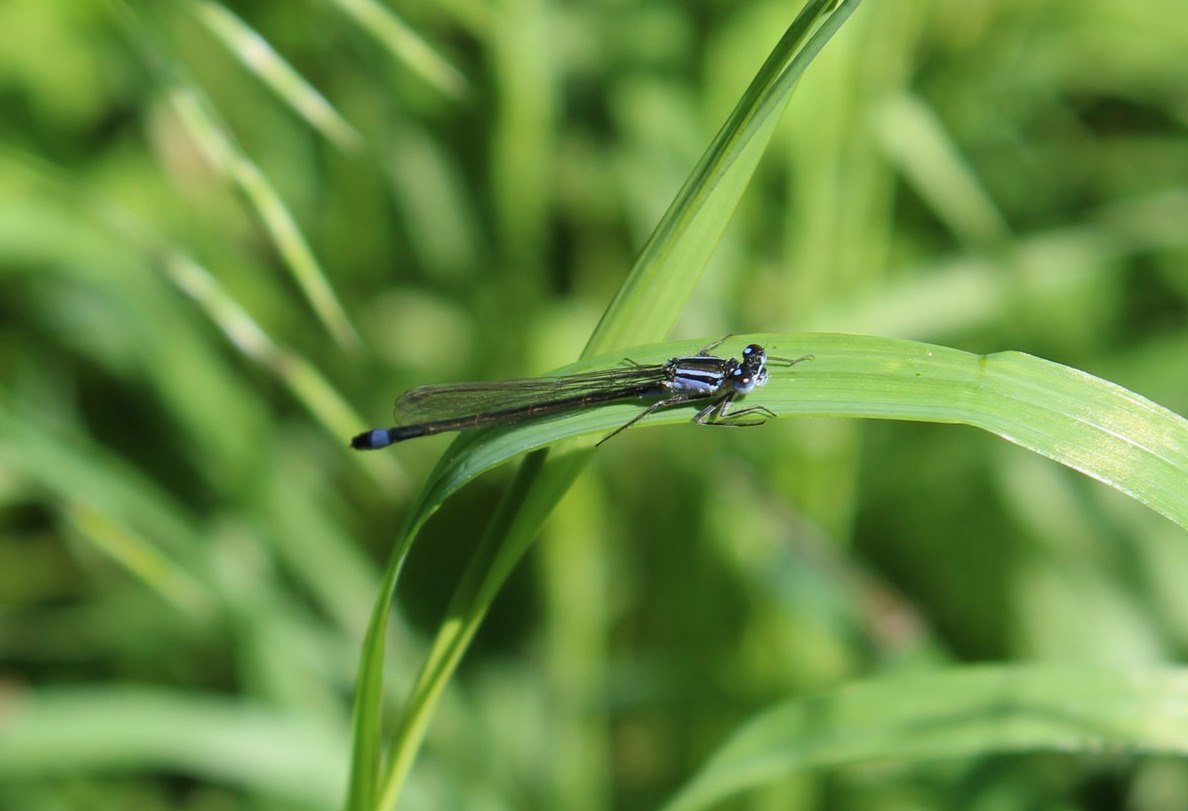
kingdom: Animalia
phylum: Arthropoda
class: Insecta
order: Odonata
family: Coenagrionidae
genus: Ischnura
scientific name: Ischnura elegans
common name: Blue-tailed damselfly
